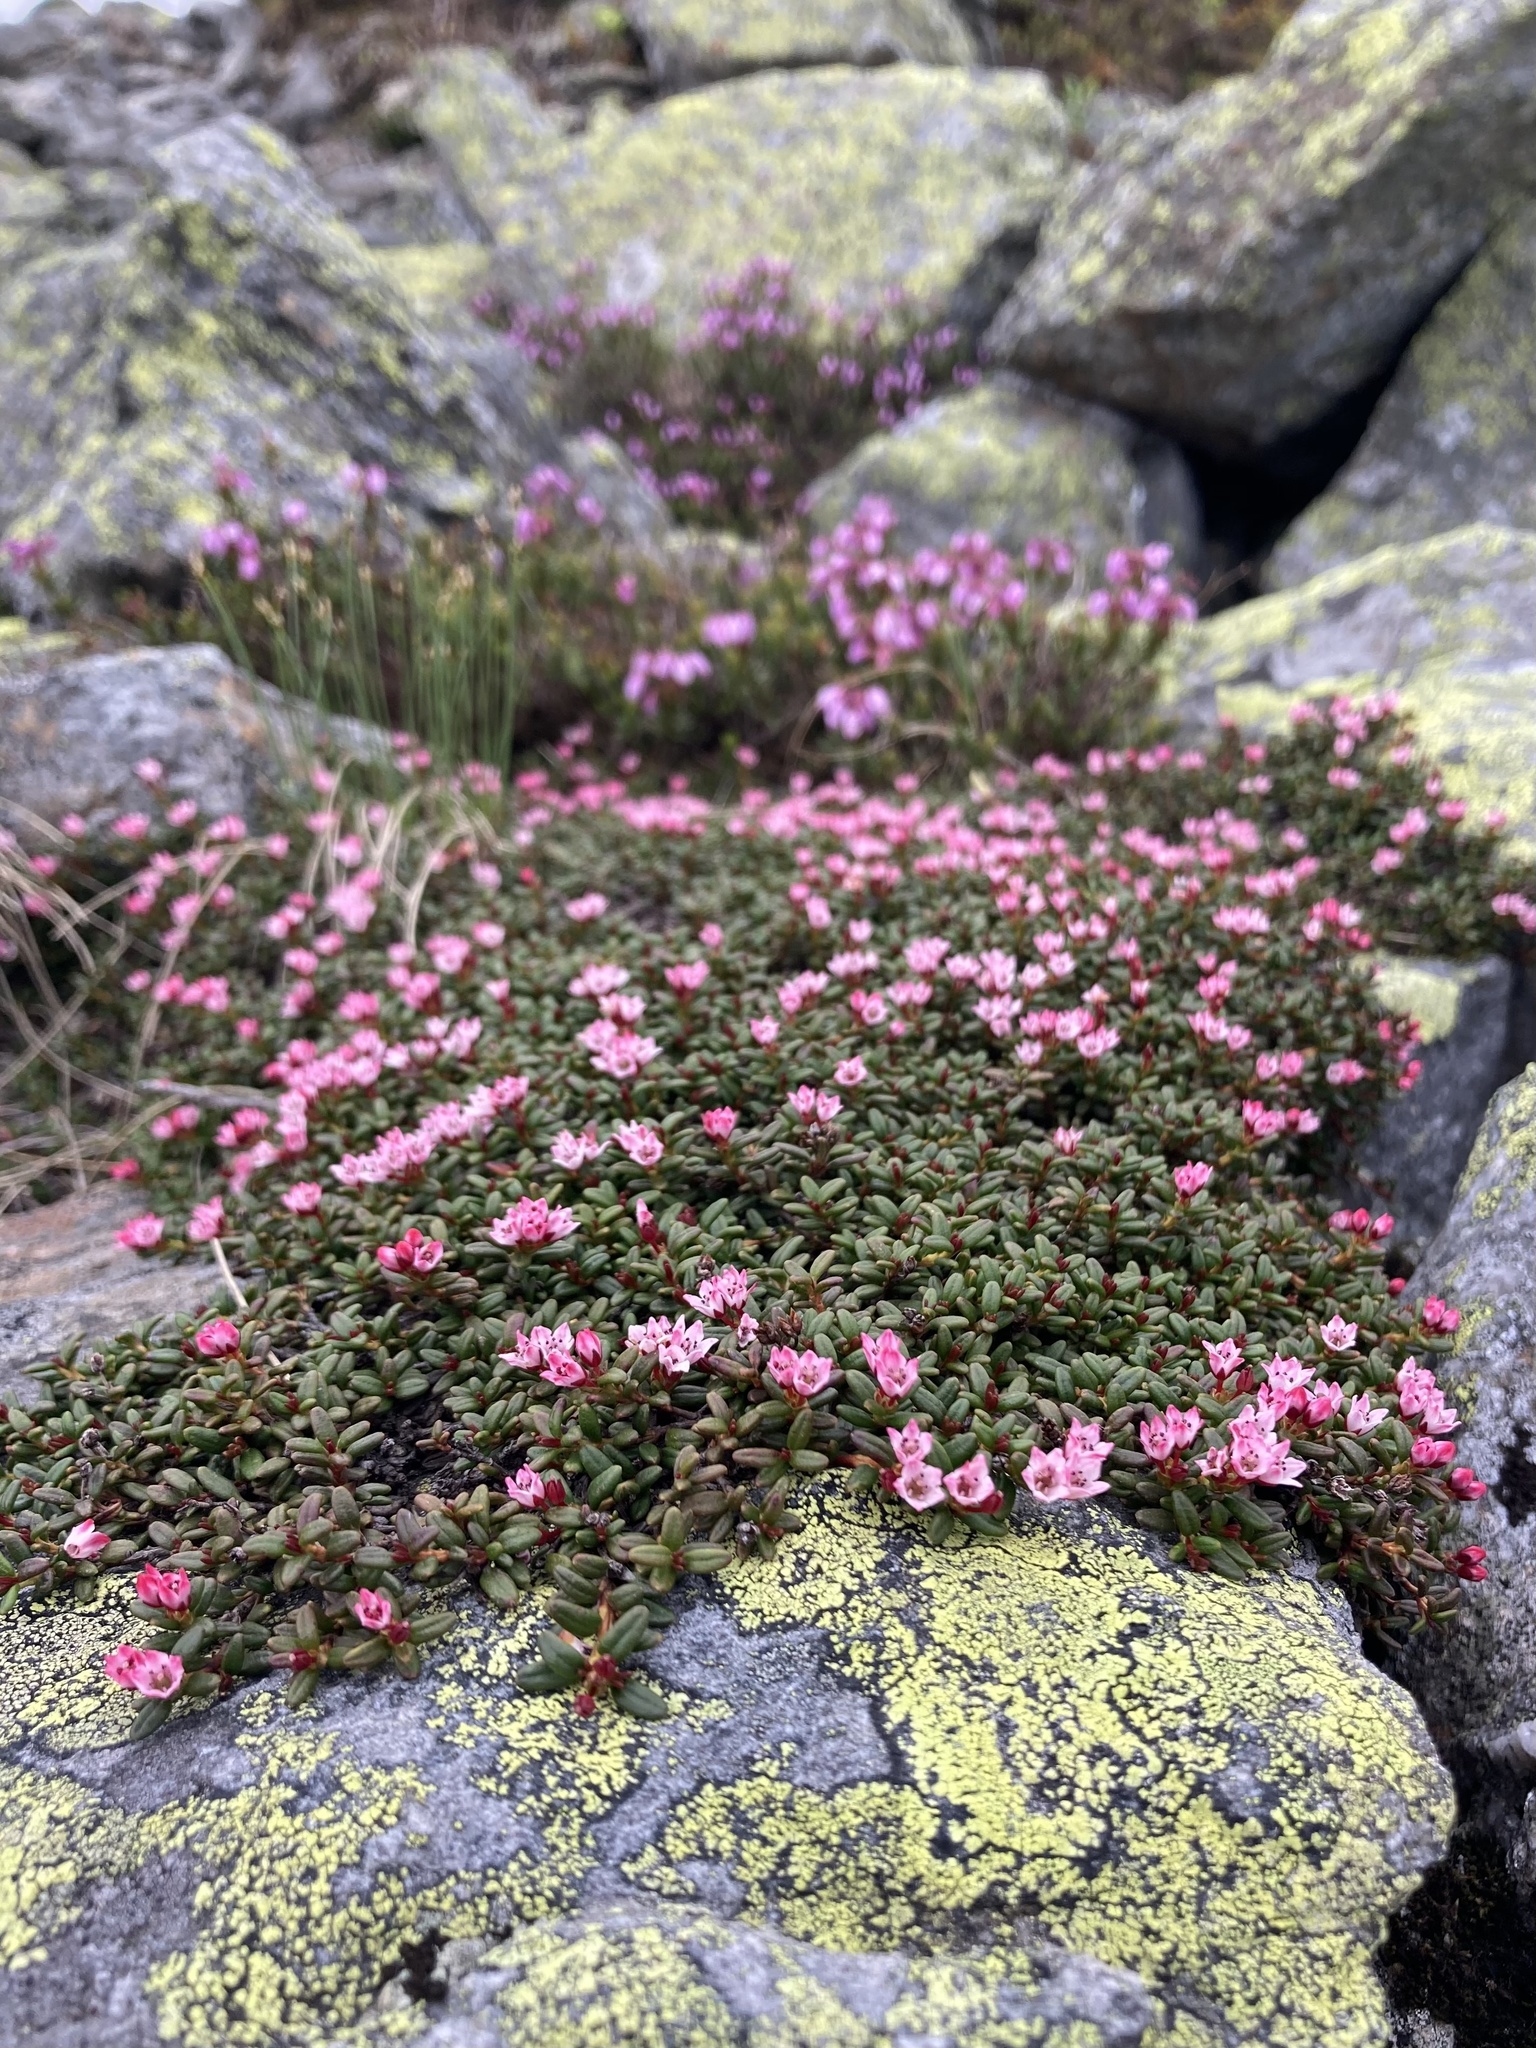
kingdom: Plantae
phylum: Tracheophyta
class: Magnoliopsida
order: Ericales
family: Ericaceae
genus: Kalmia
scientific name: Kalmia procumbens
